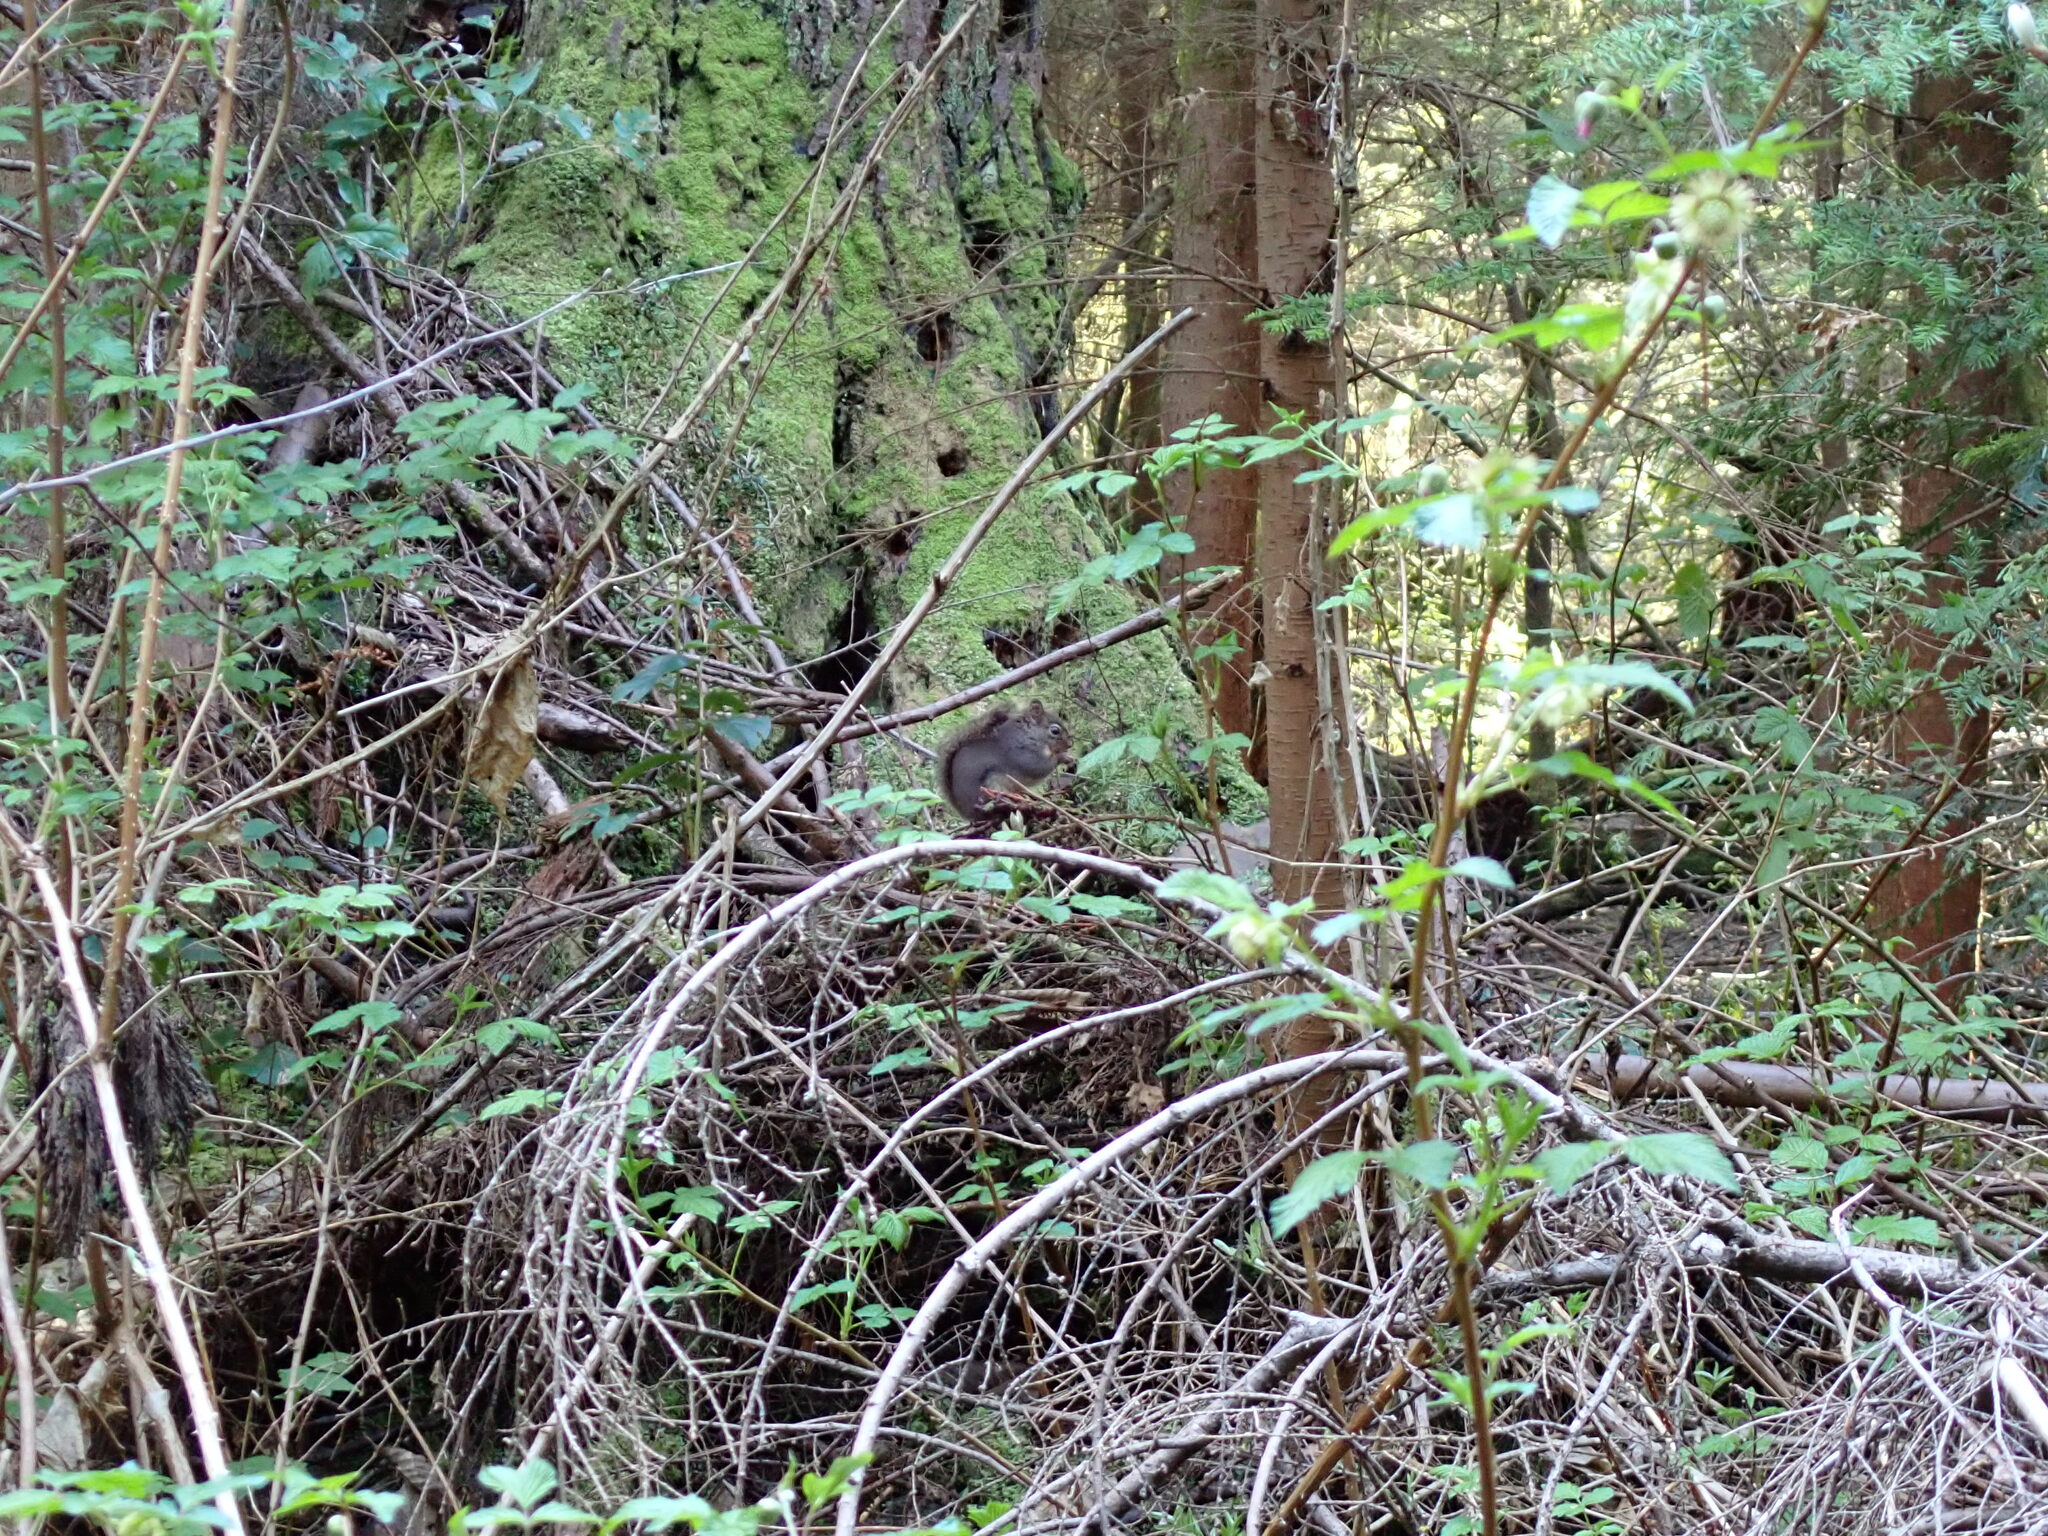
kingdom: Animalia
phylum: Chordata
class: Mammalia
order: Rodentia
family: Sciuridae
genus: Tamiasciurus
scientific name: Tamiasciurus douglasii
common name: Douglas's squirrel
